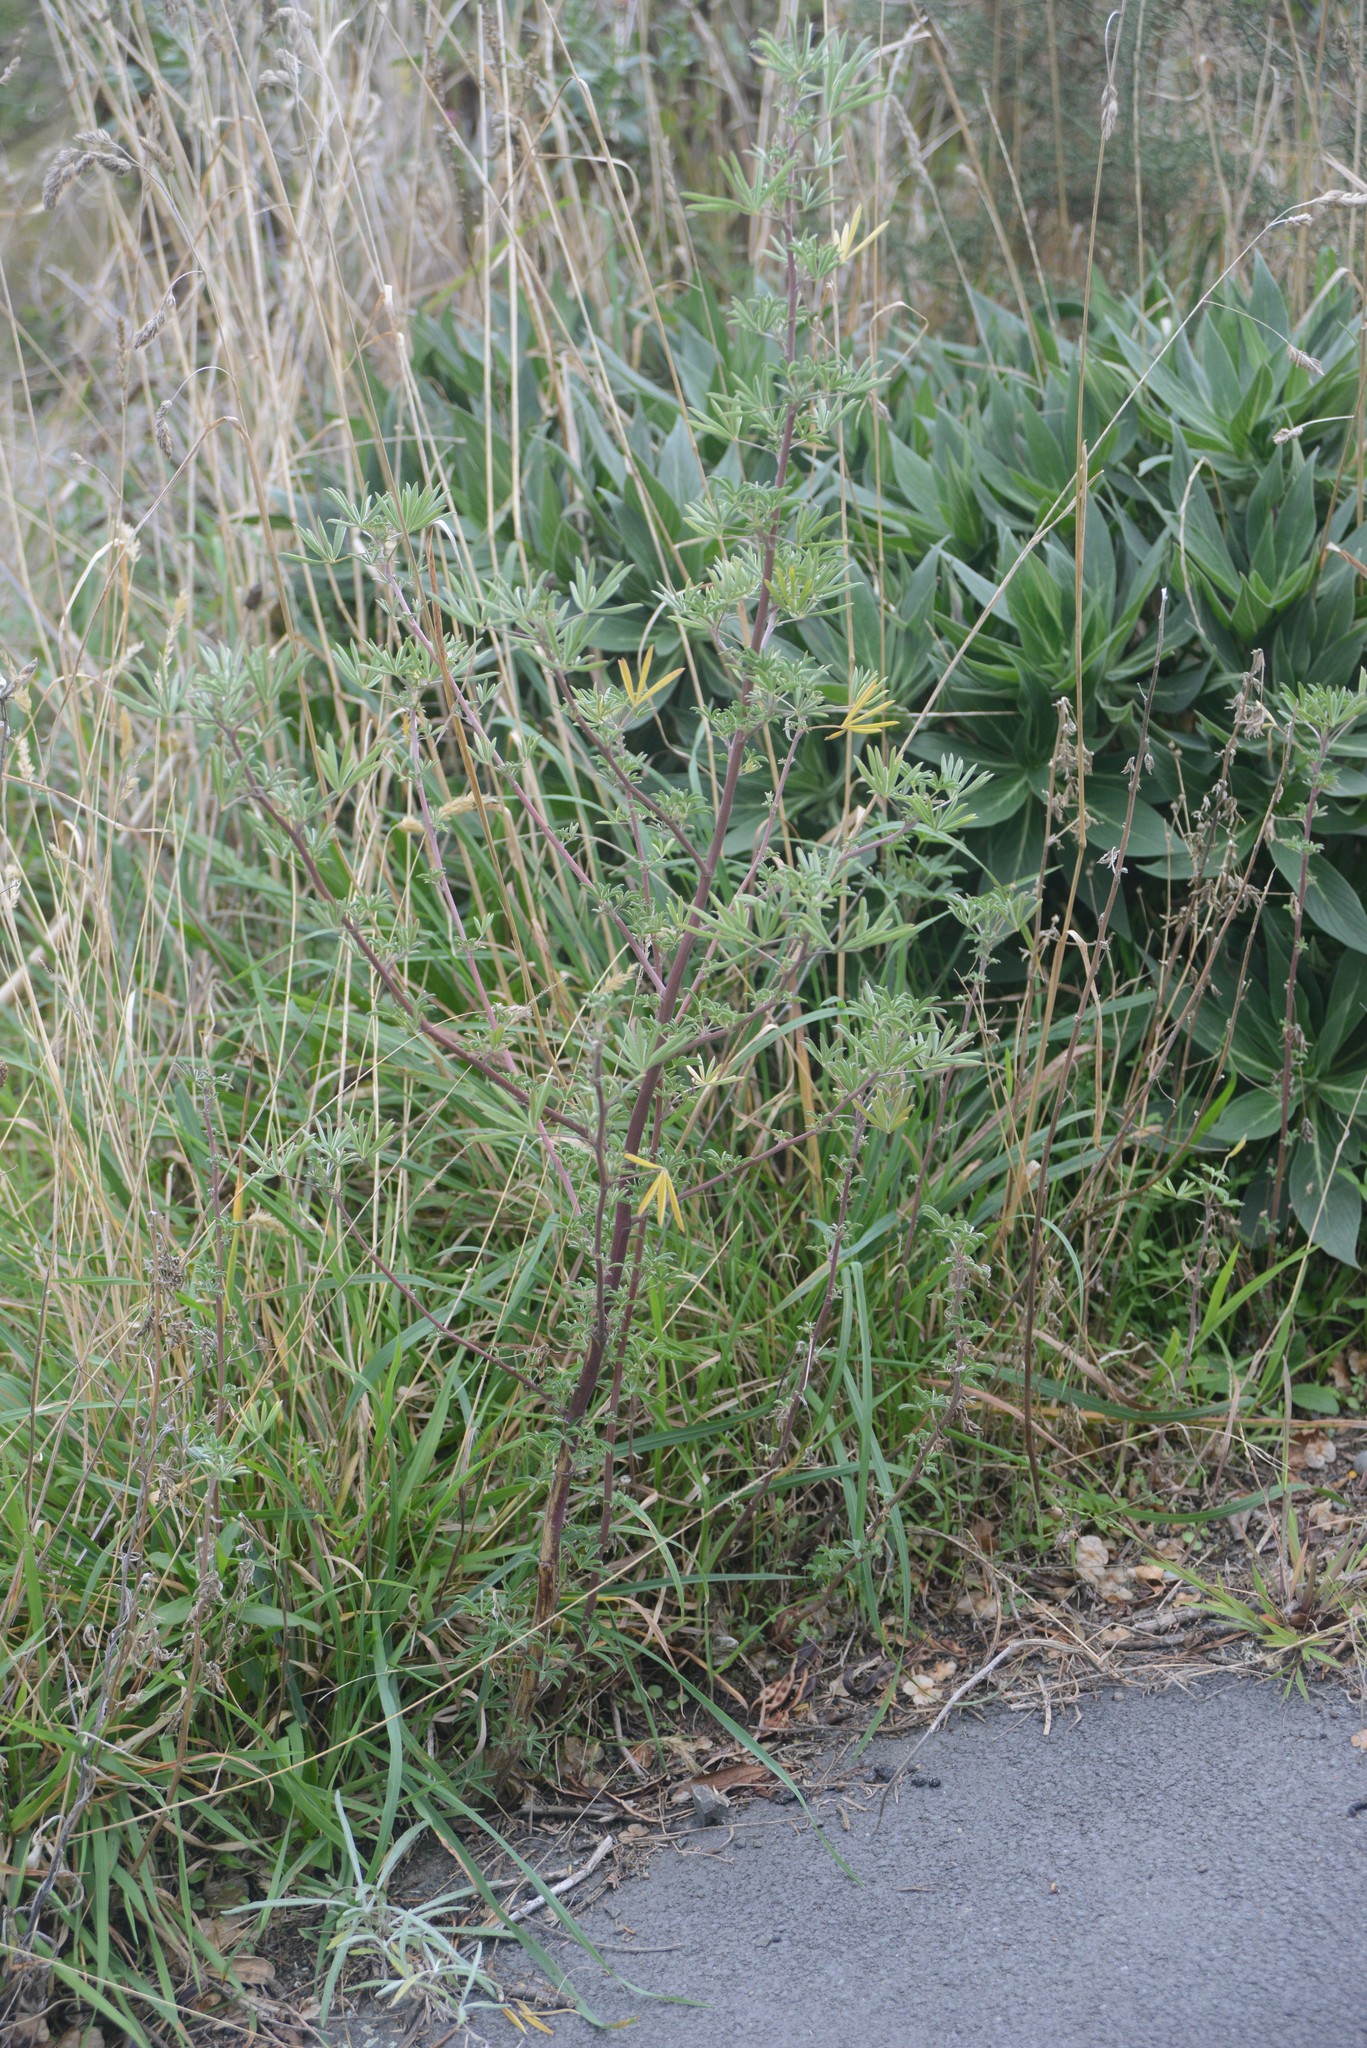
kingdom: Plantae
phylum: Tracheophyta
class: Magnoliopsida
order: Fabales
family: Fabaceae
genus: Lupinus
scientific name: Lupinus arboreus
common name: Yellow bush lupine
